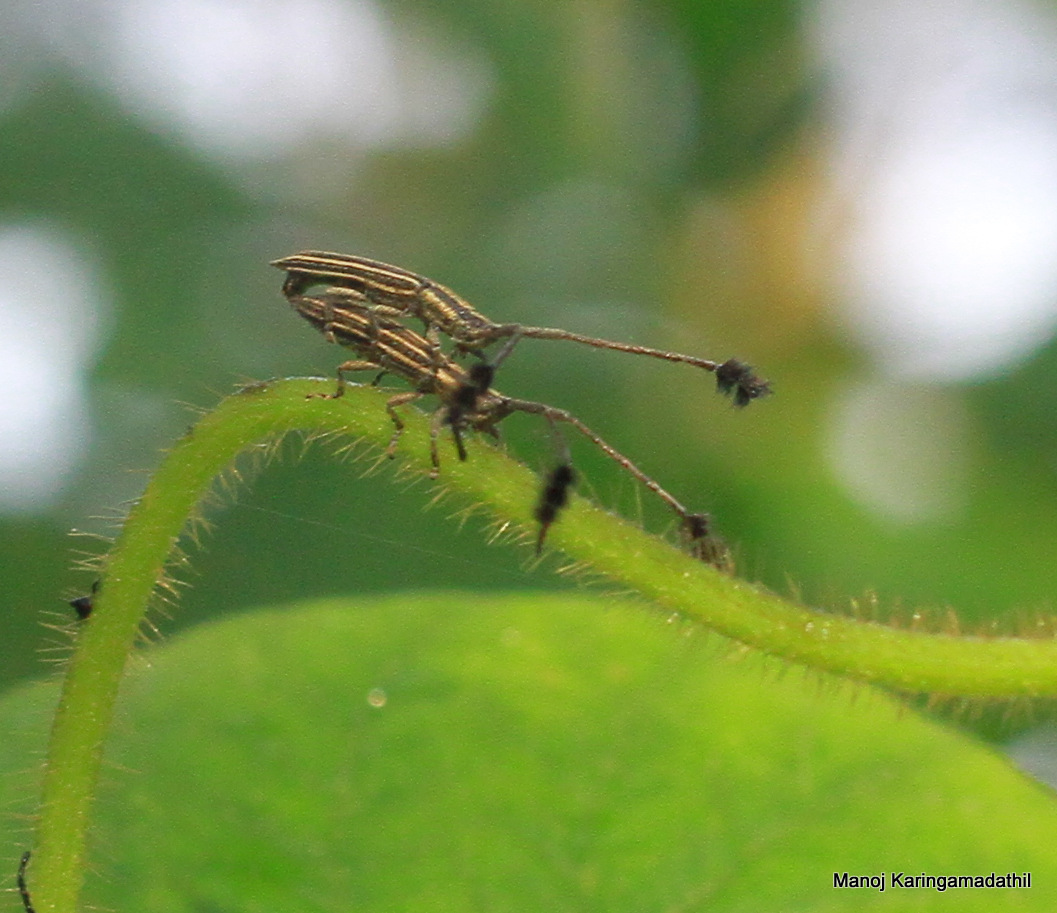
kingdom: Animalia
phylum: Arthropoda
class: Insecta
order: Coleoptera
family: Cerambycidae
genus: Eucomatocera
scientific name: Eucomatocera vittata
